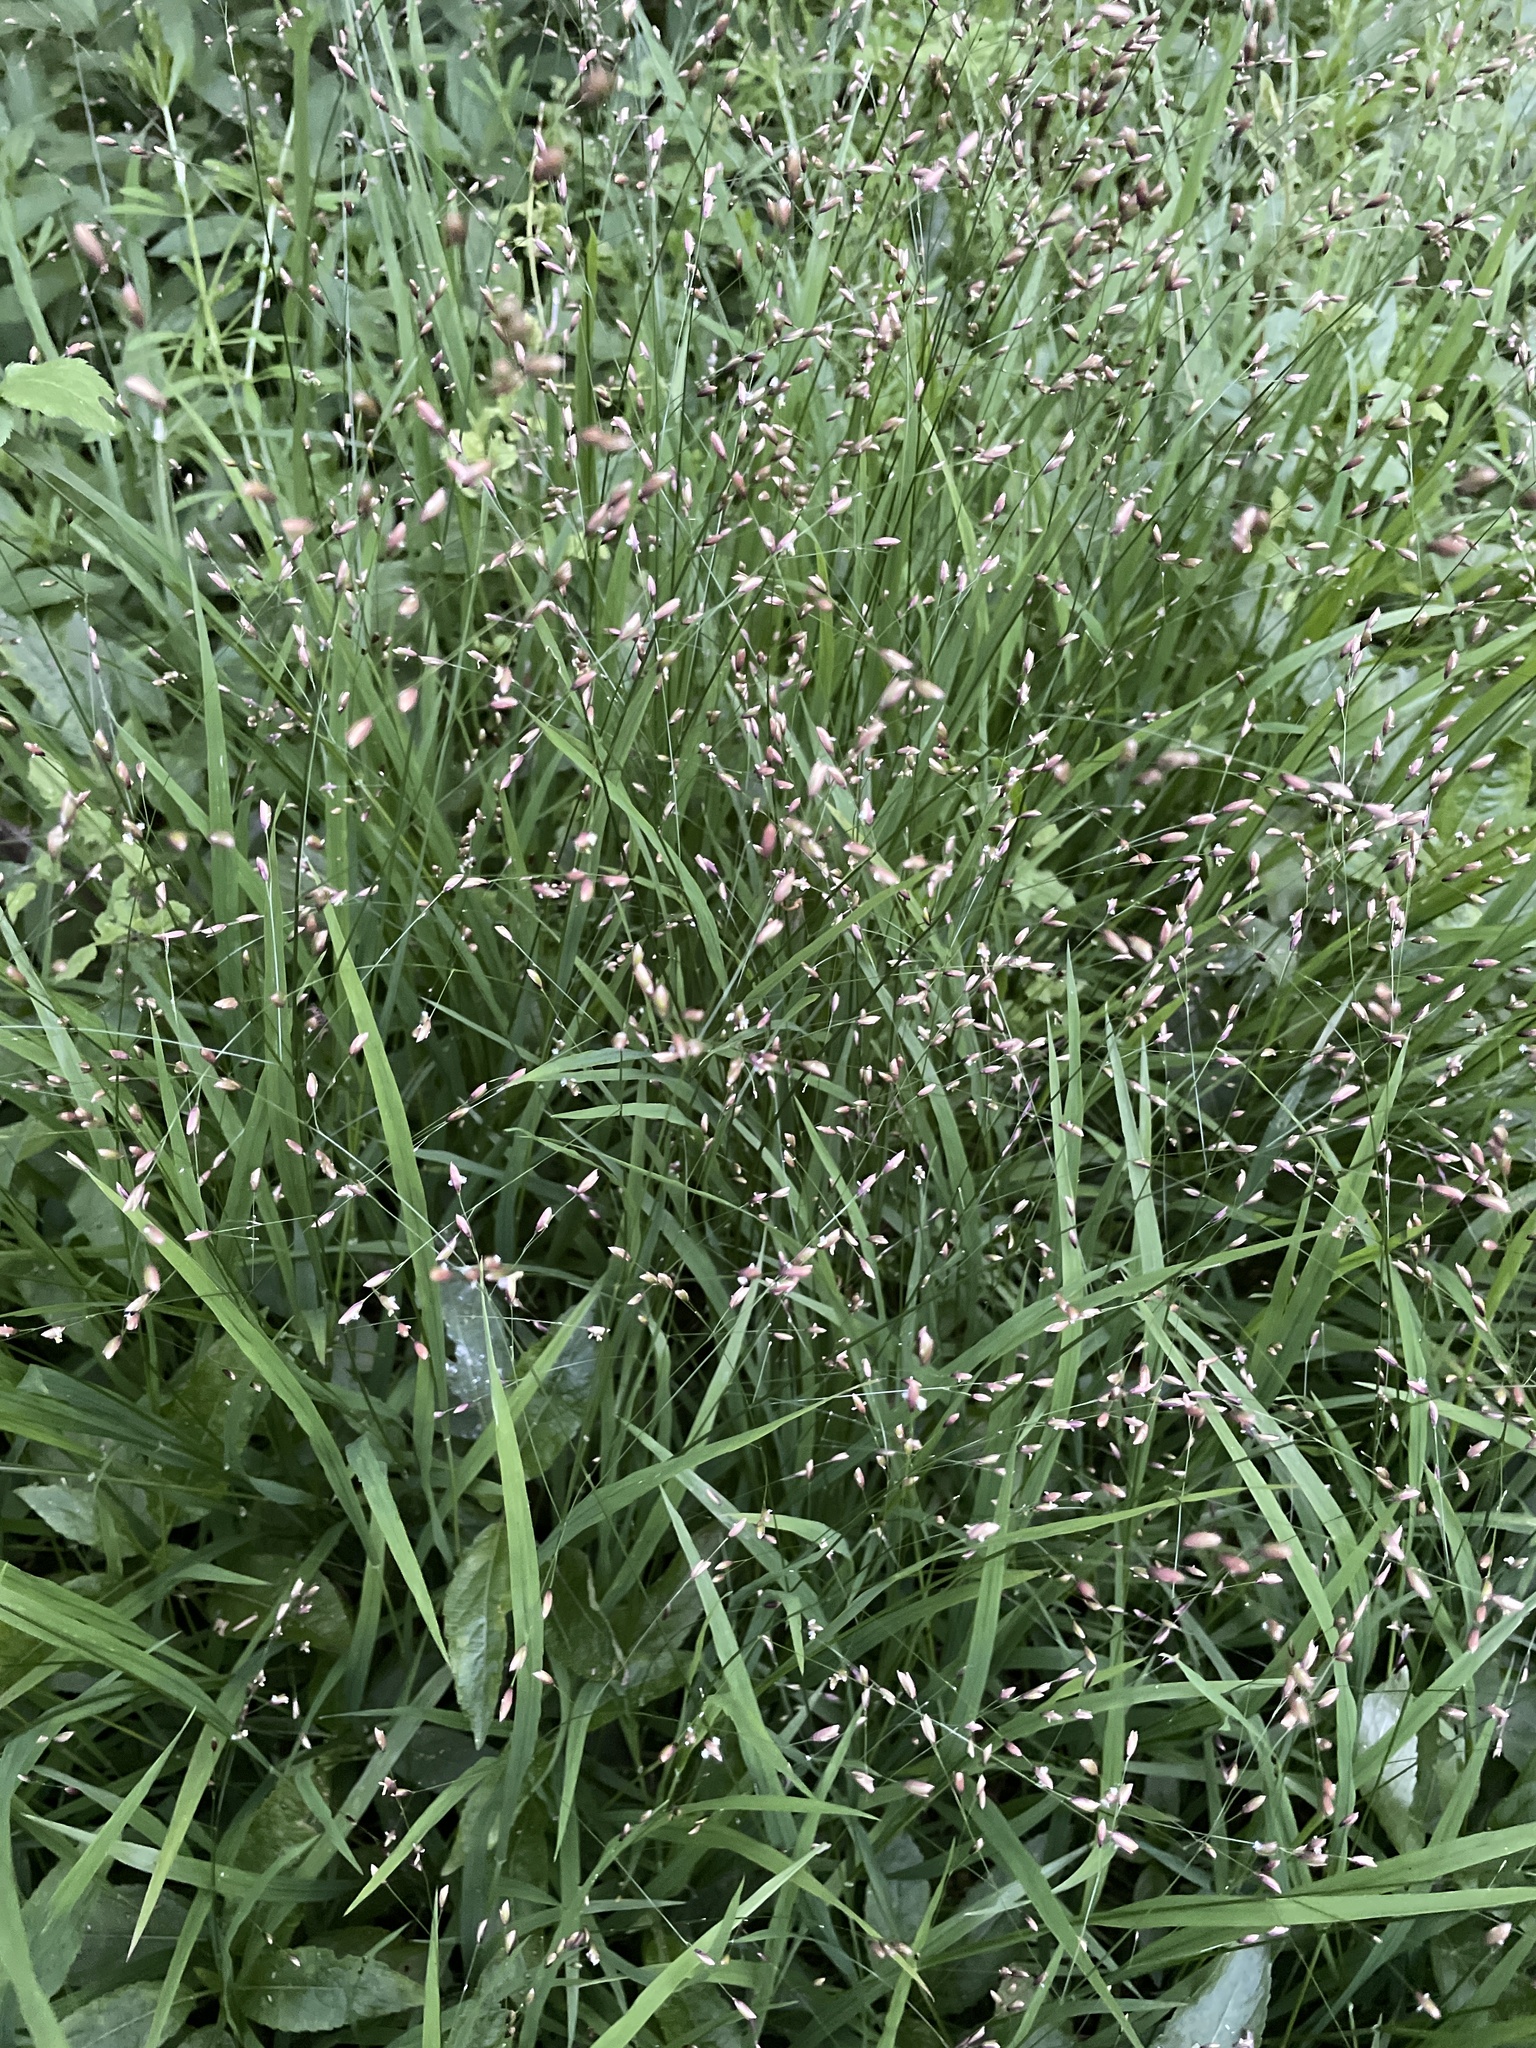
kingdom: Plantae
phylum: Tracheophyta
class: Liliopsida
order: Poales
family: Poaceae
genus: Melica
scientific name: Melica uniflora
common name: Wood melick
